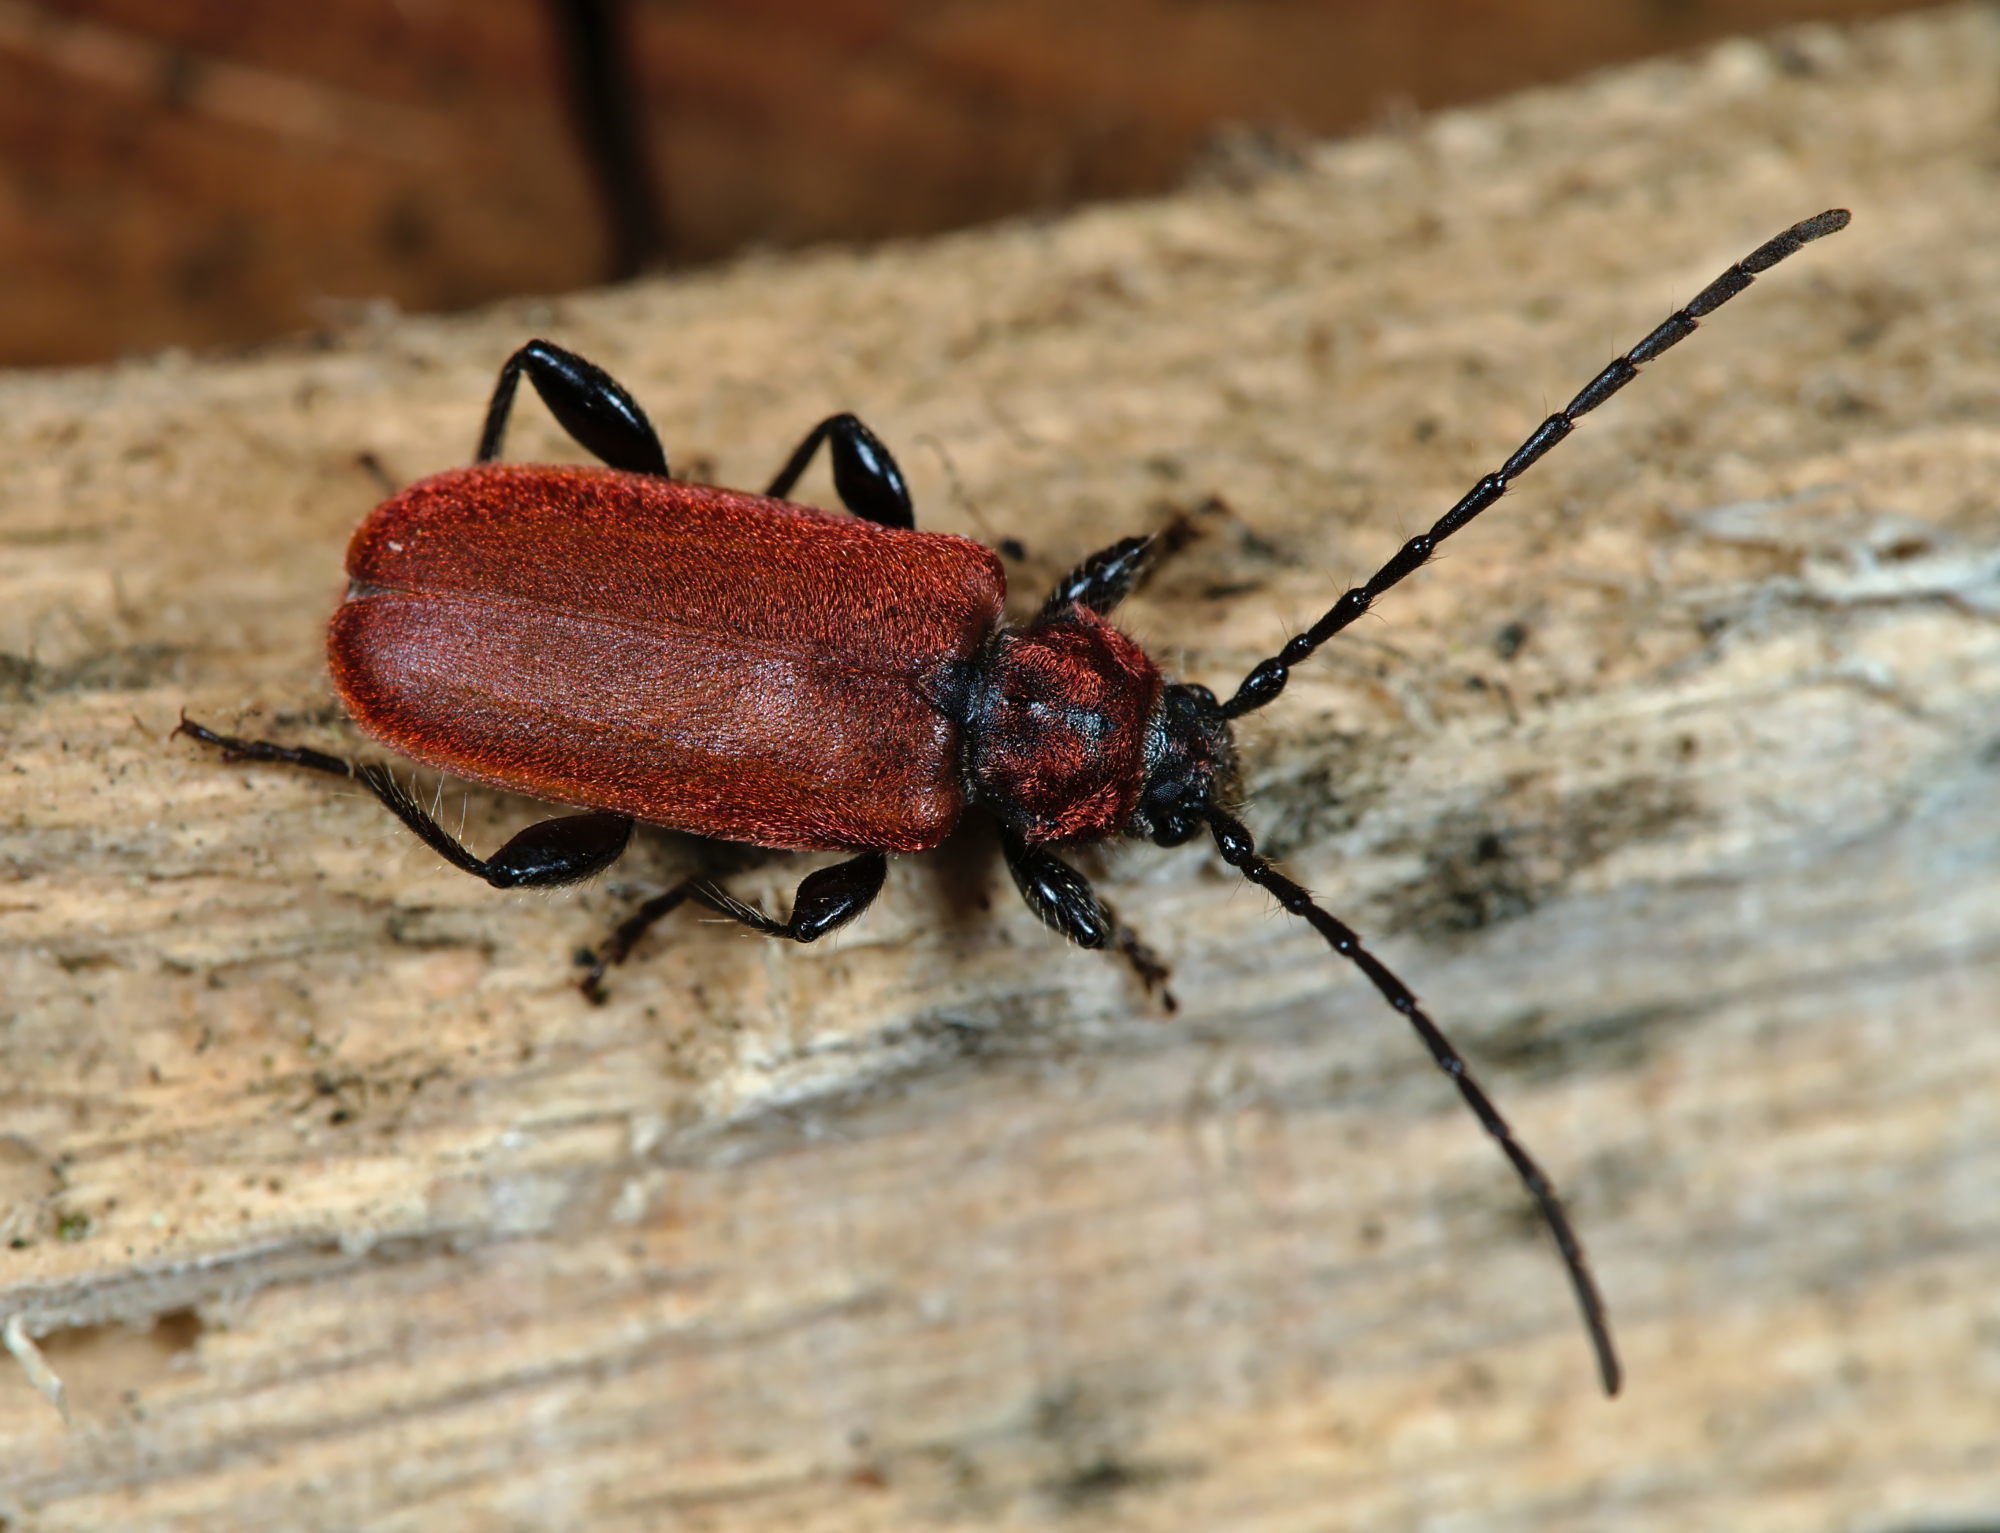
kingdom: Animalia
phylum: Arthropoda
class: Insecta
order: Coleoptera
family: Cerambycidae
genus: Pyrrhidium
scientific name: Pyrrhidium sanguineum
